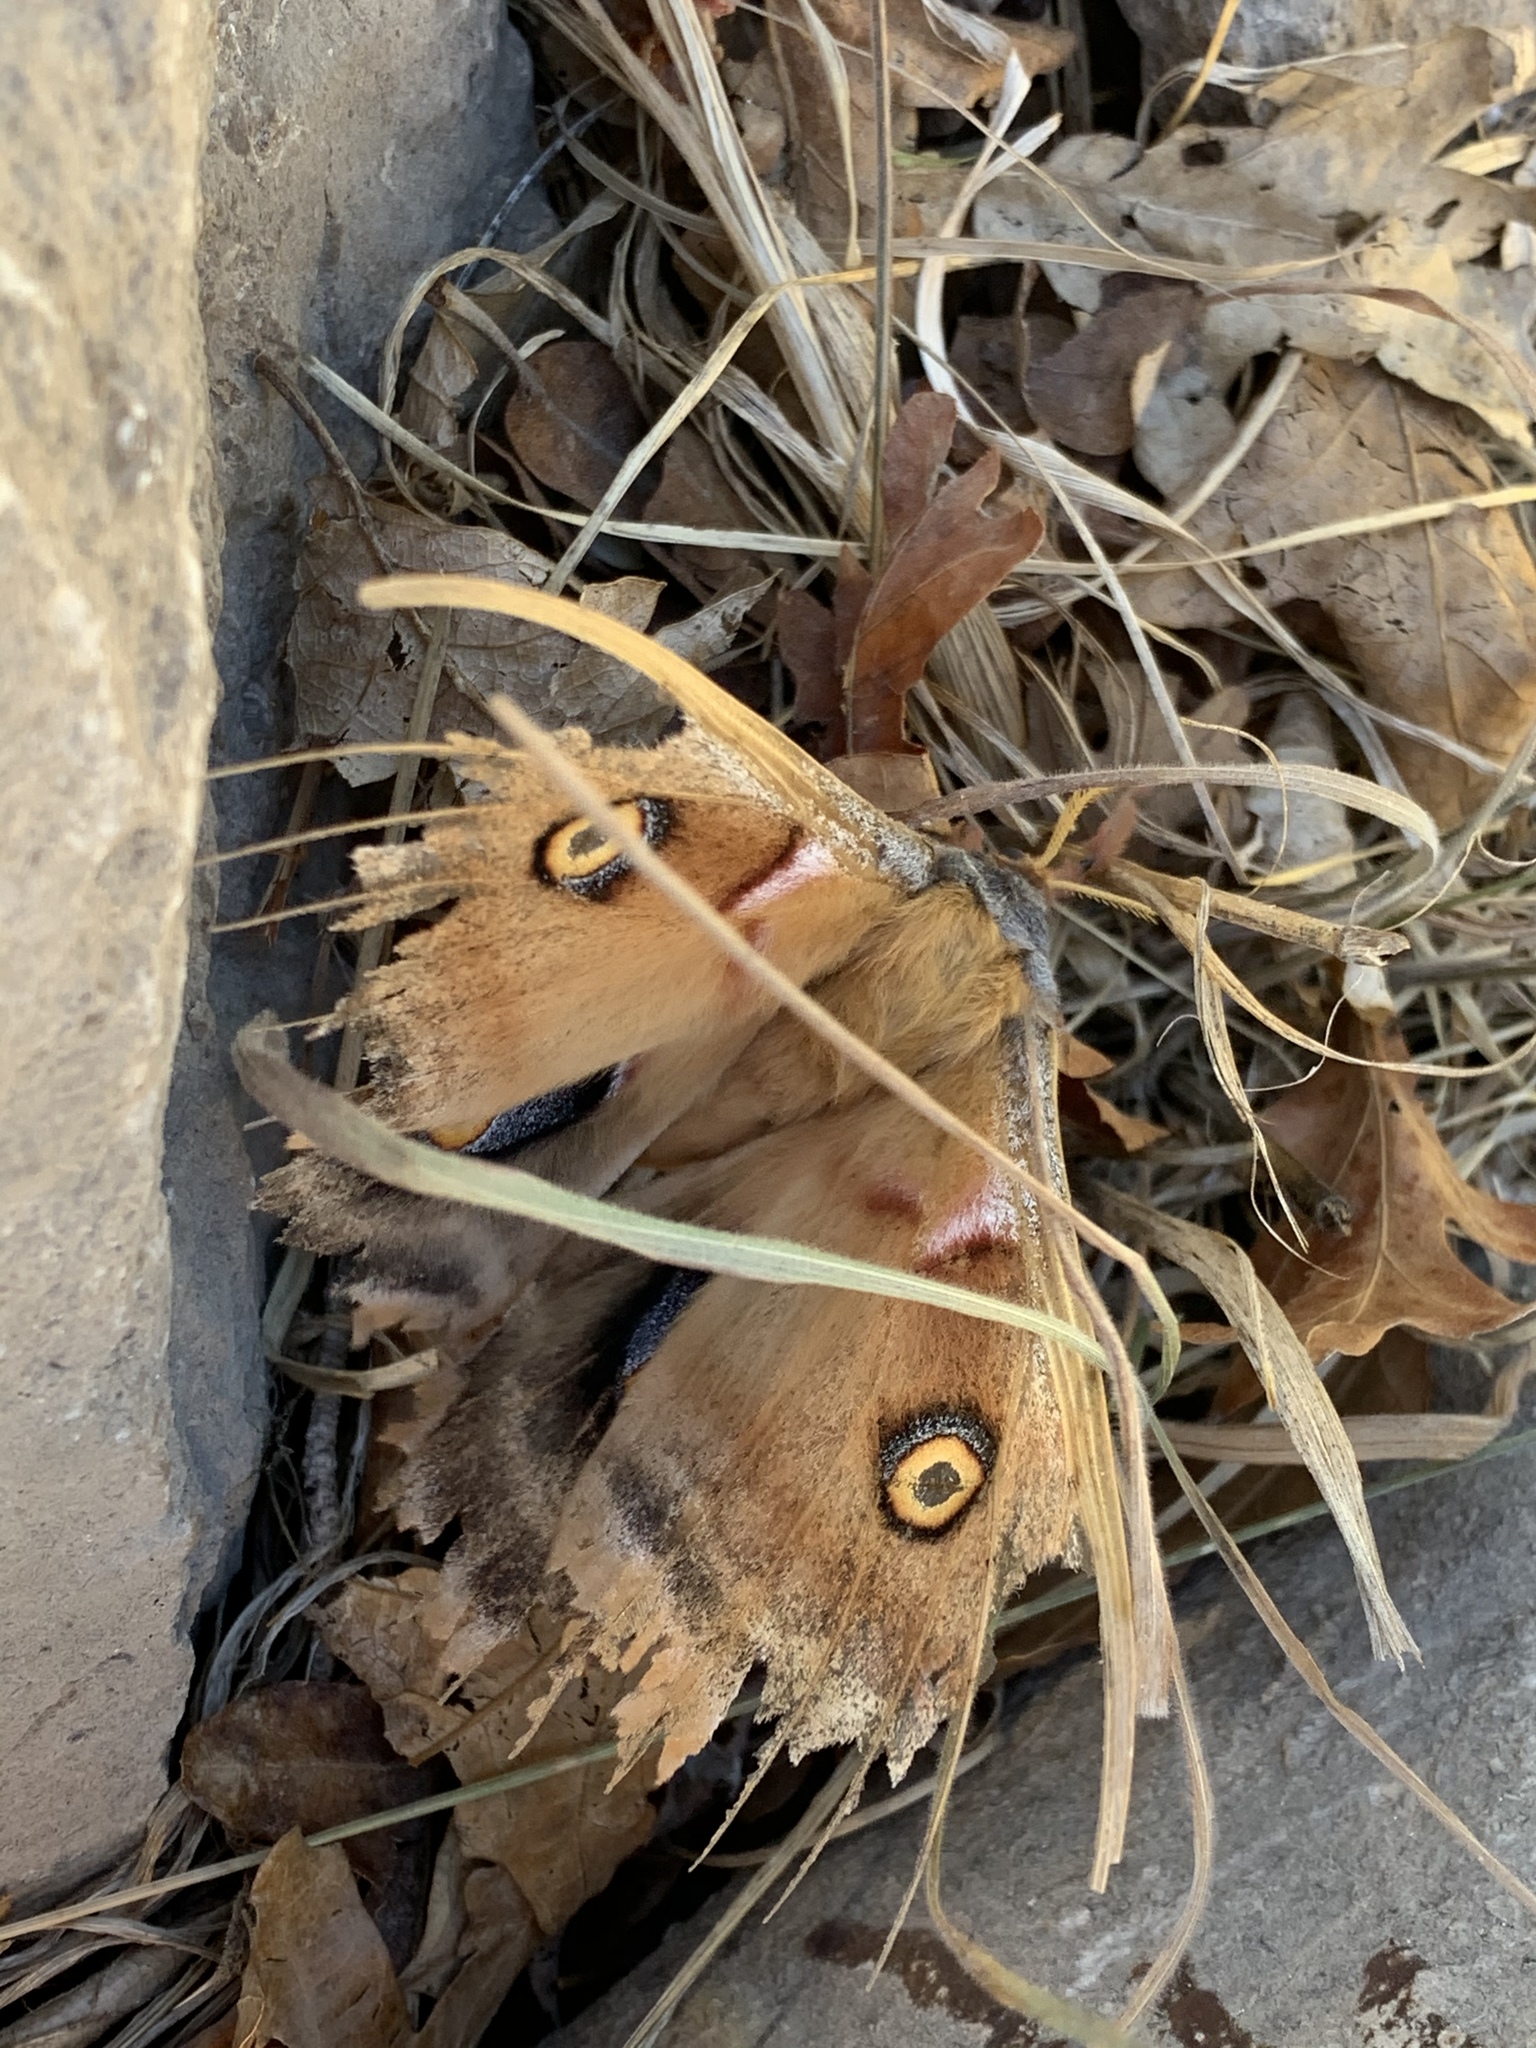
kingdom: Animalia
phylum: Arthropoda
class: Insecta
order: Lepidoptera
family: Saturniidae
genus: Antheraea
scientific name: Antheraea oculea
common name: Arizona polyphemus moth
